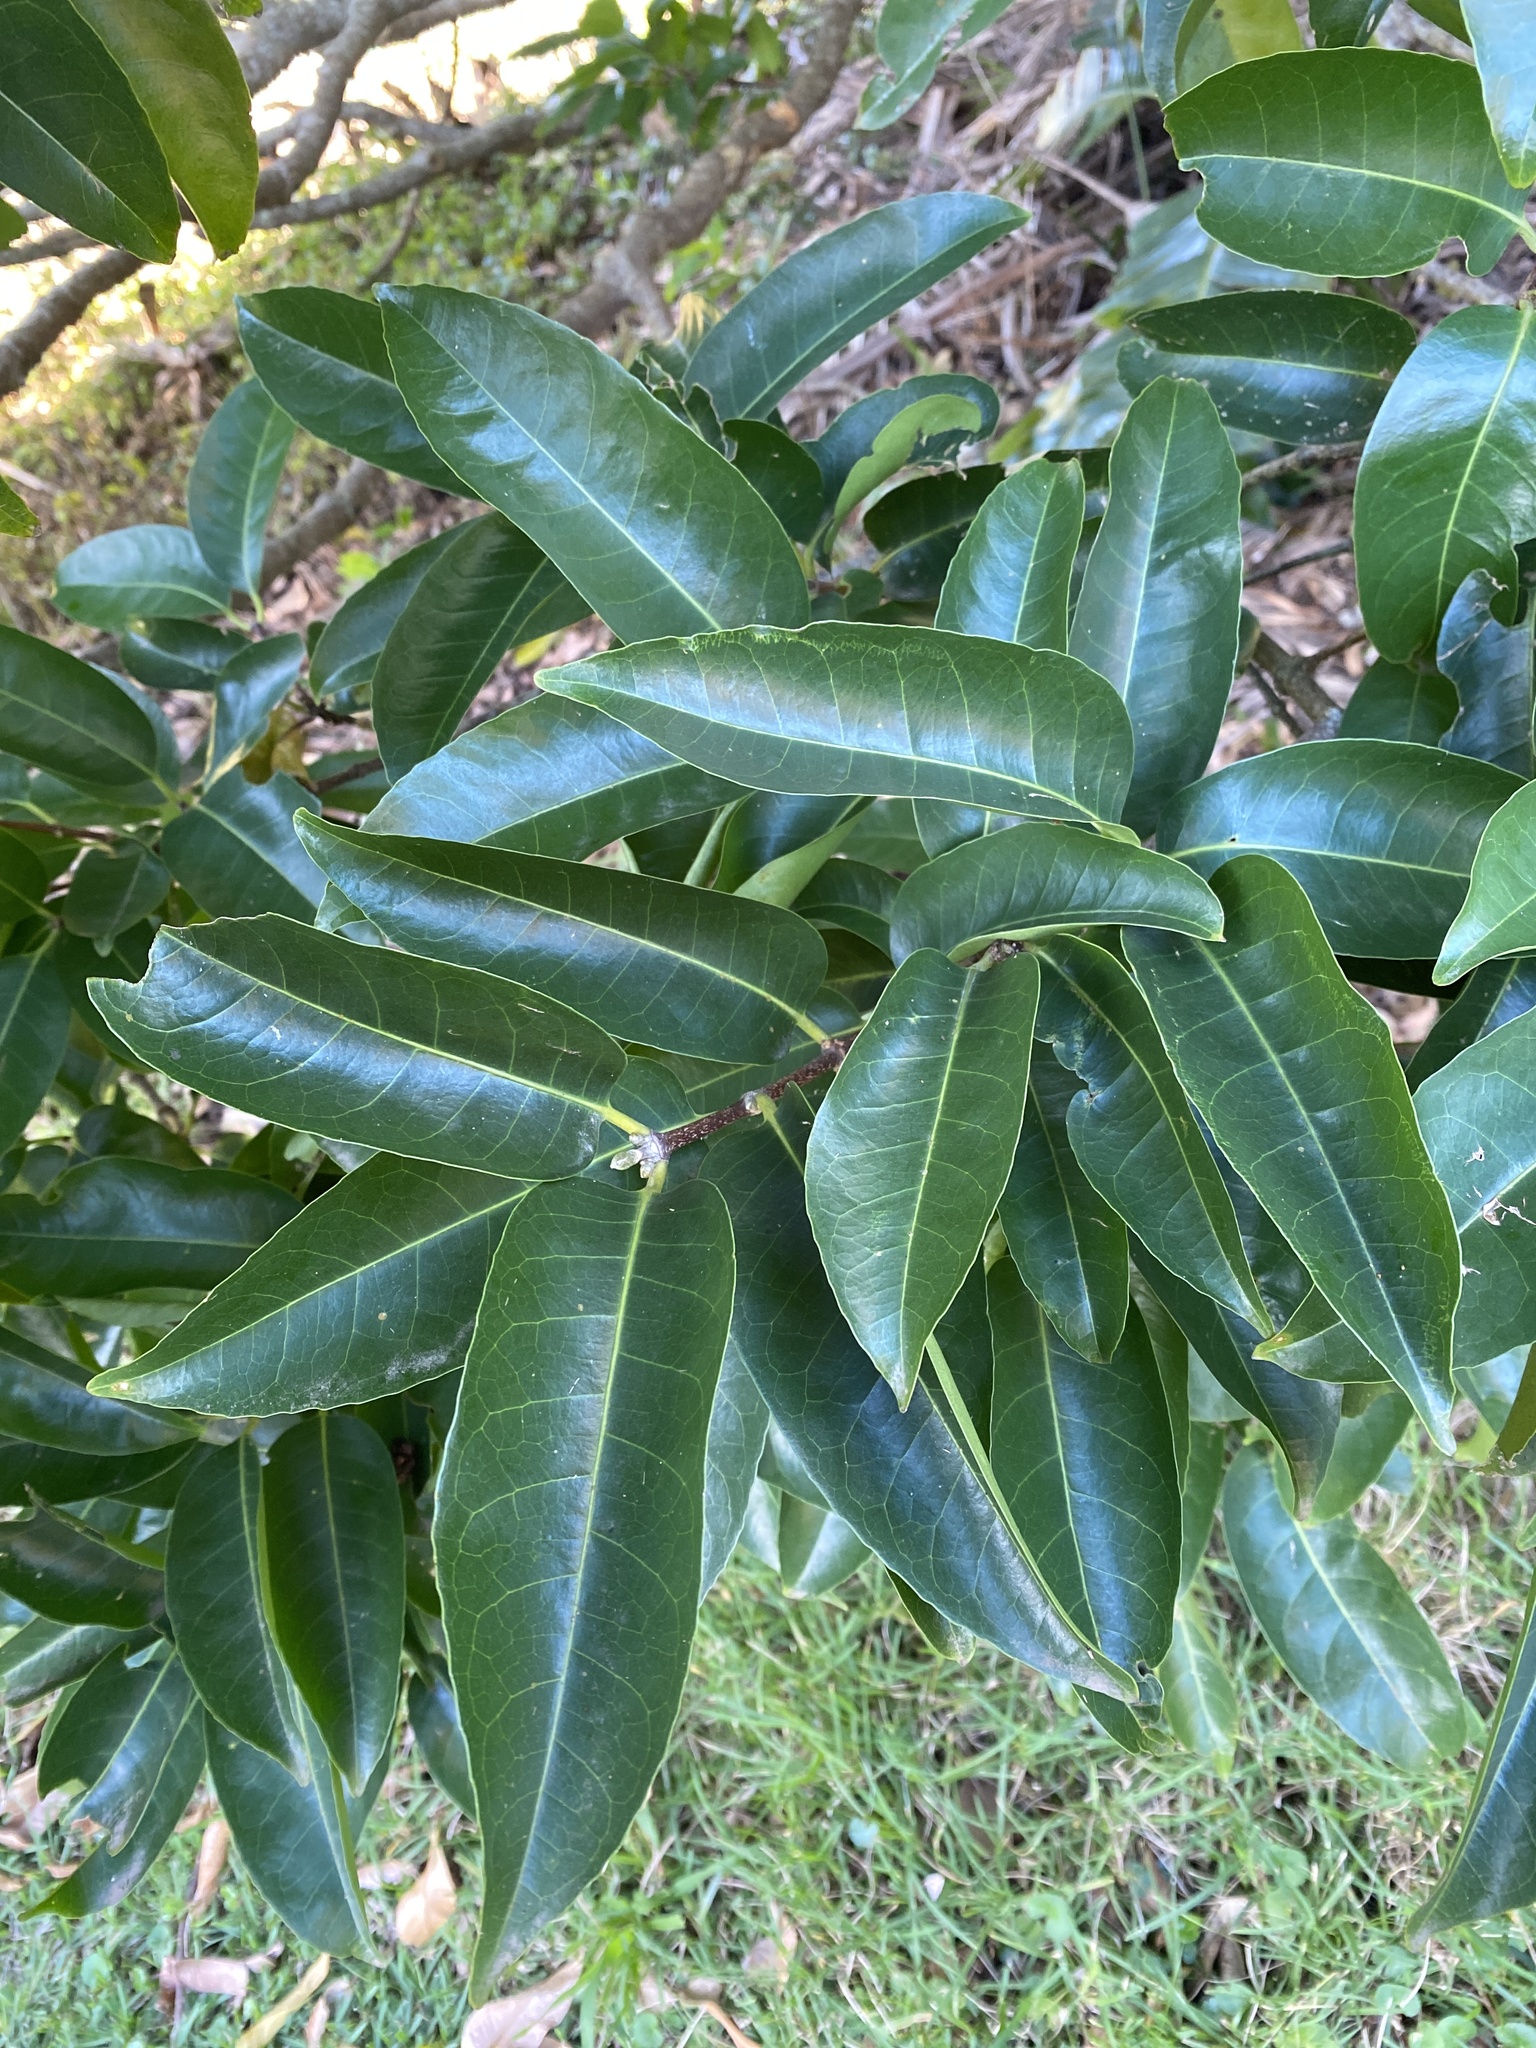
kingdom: Plantae
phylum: Tracheophyta
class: Magnoliopsida
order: Rosales
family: Moraceae
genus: Ficus
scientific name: Ficus ingens
